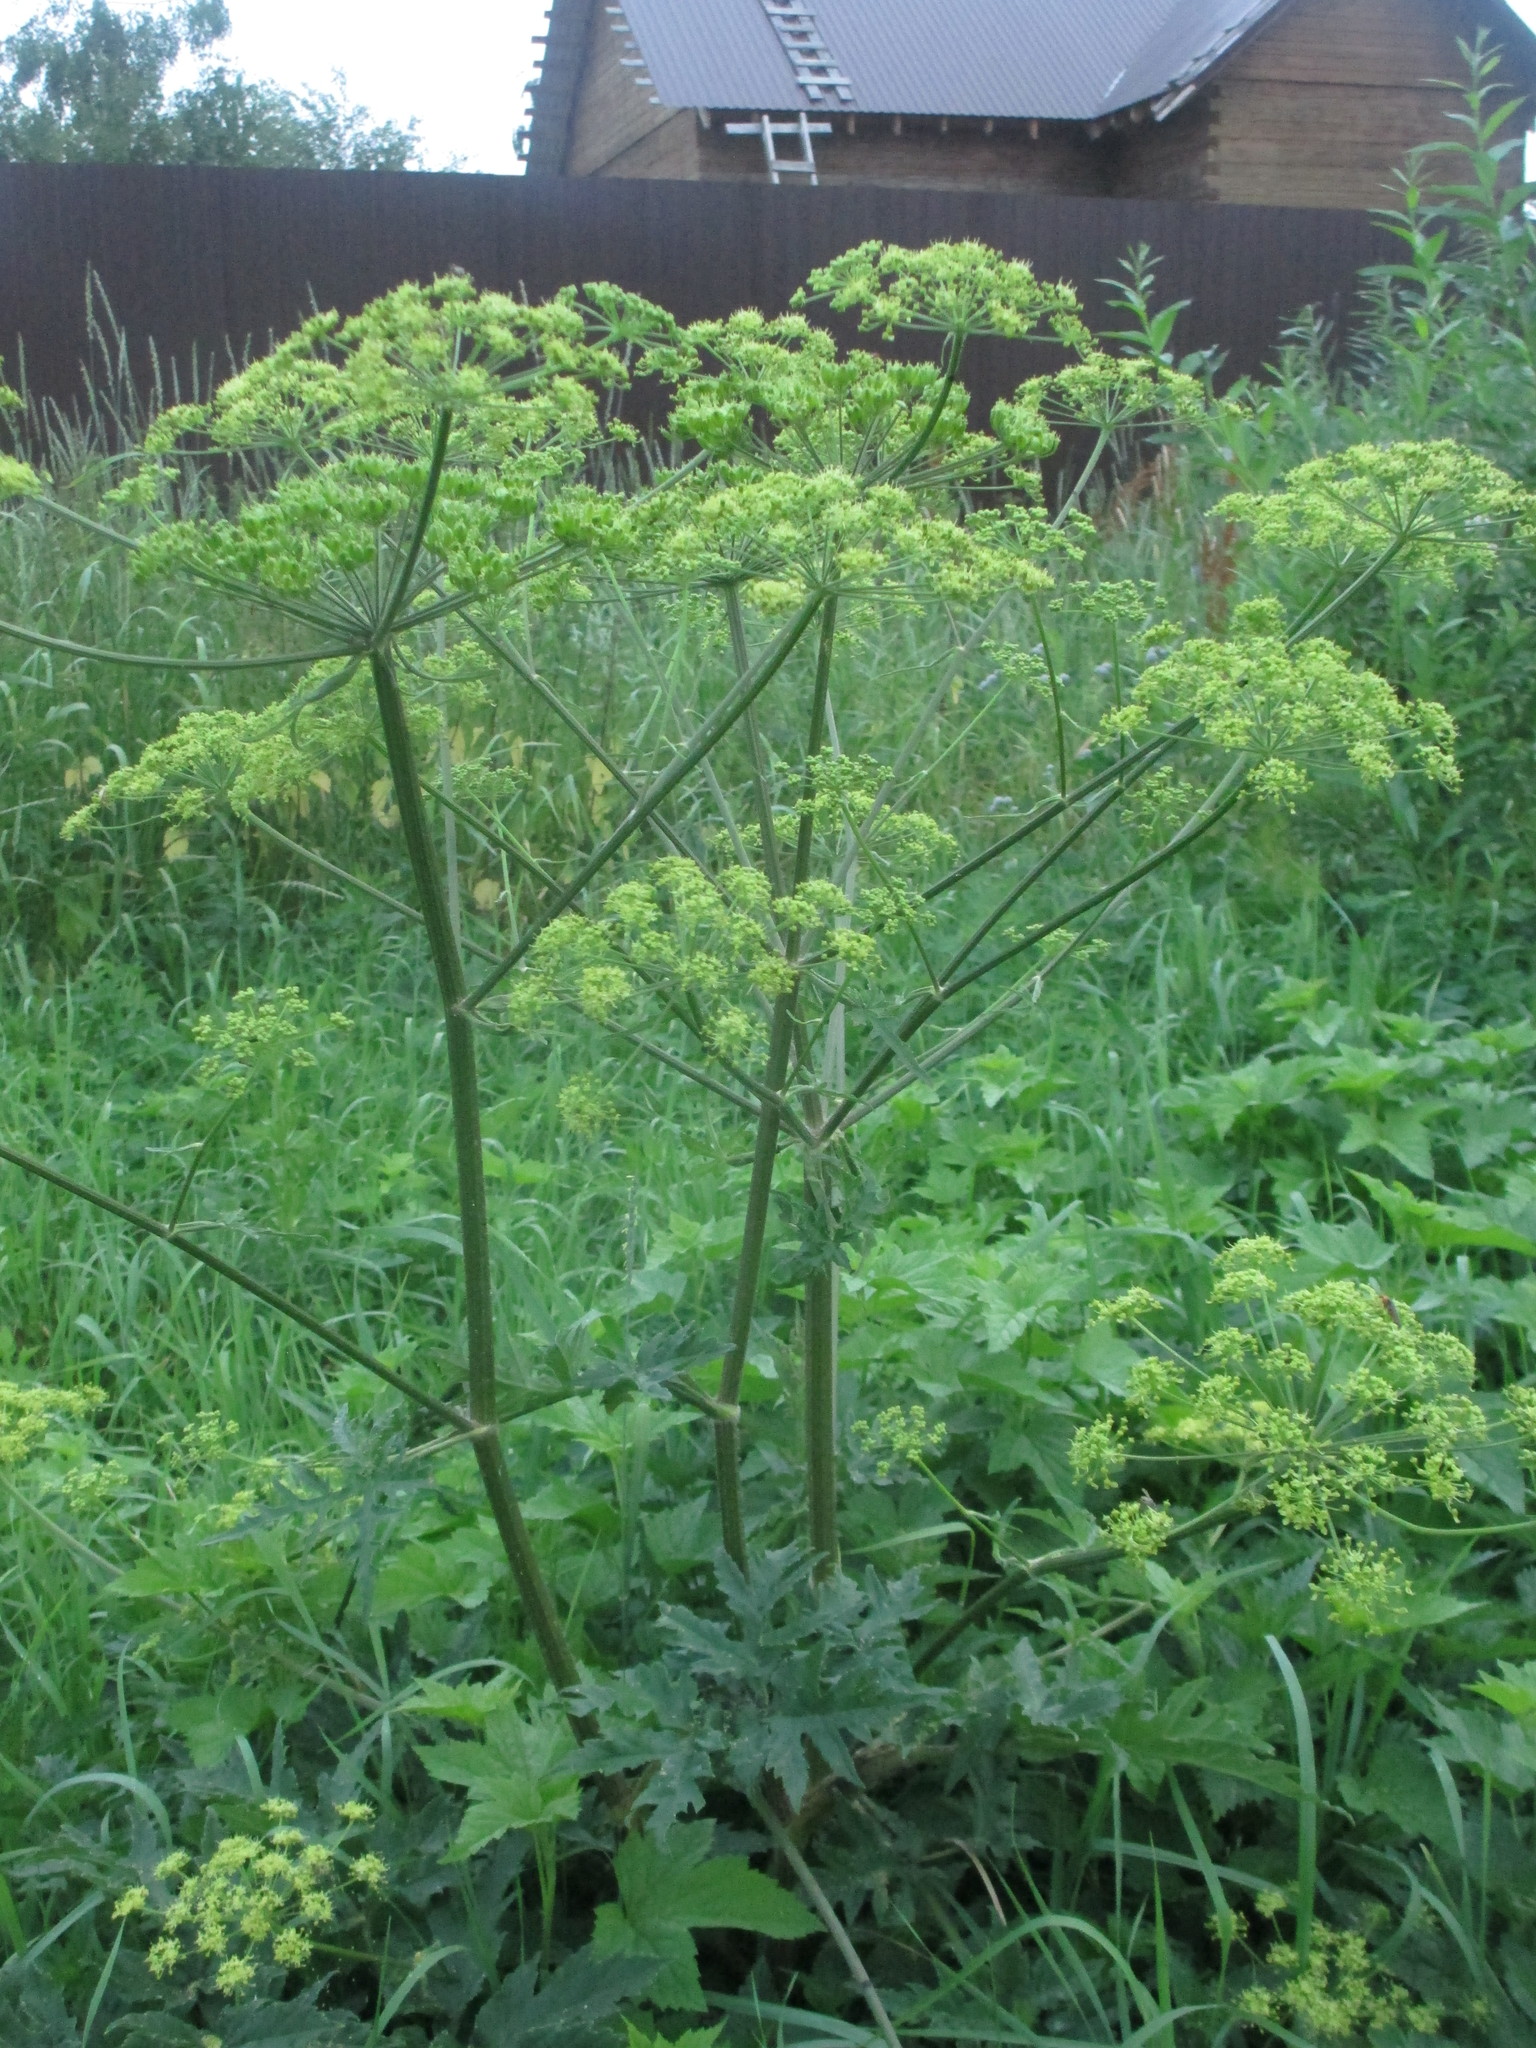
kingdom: Plantae
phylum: Tracheophyta
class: Magnoliopsida
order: Apiales
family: Apiaceae
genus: Heracleum
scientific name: Heracleum sphondylium
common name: Hogweed
